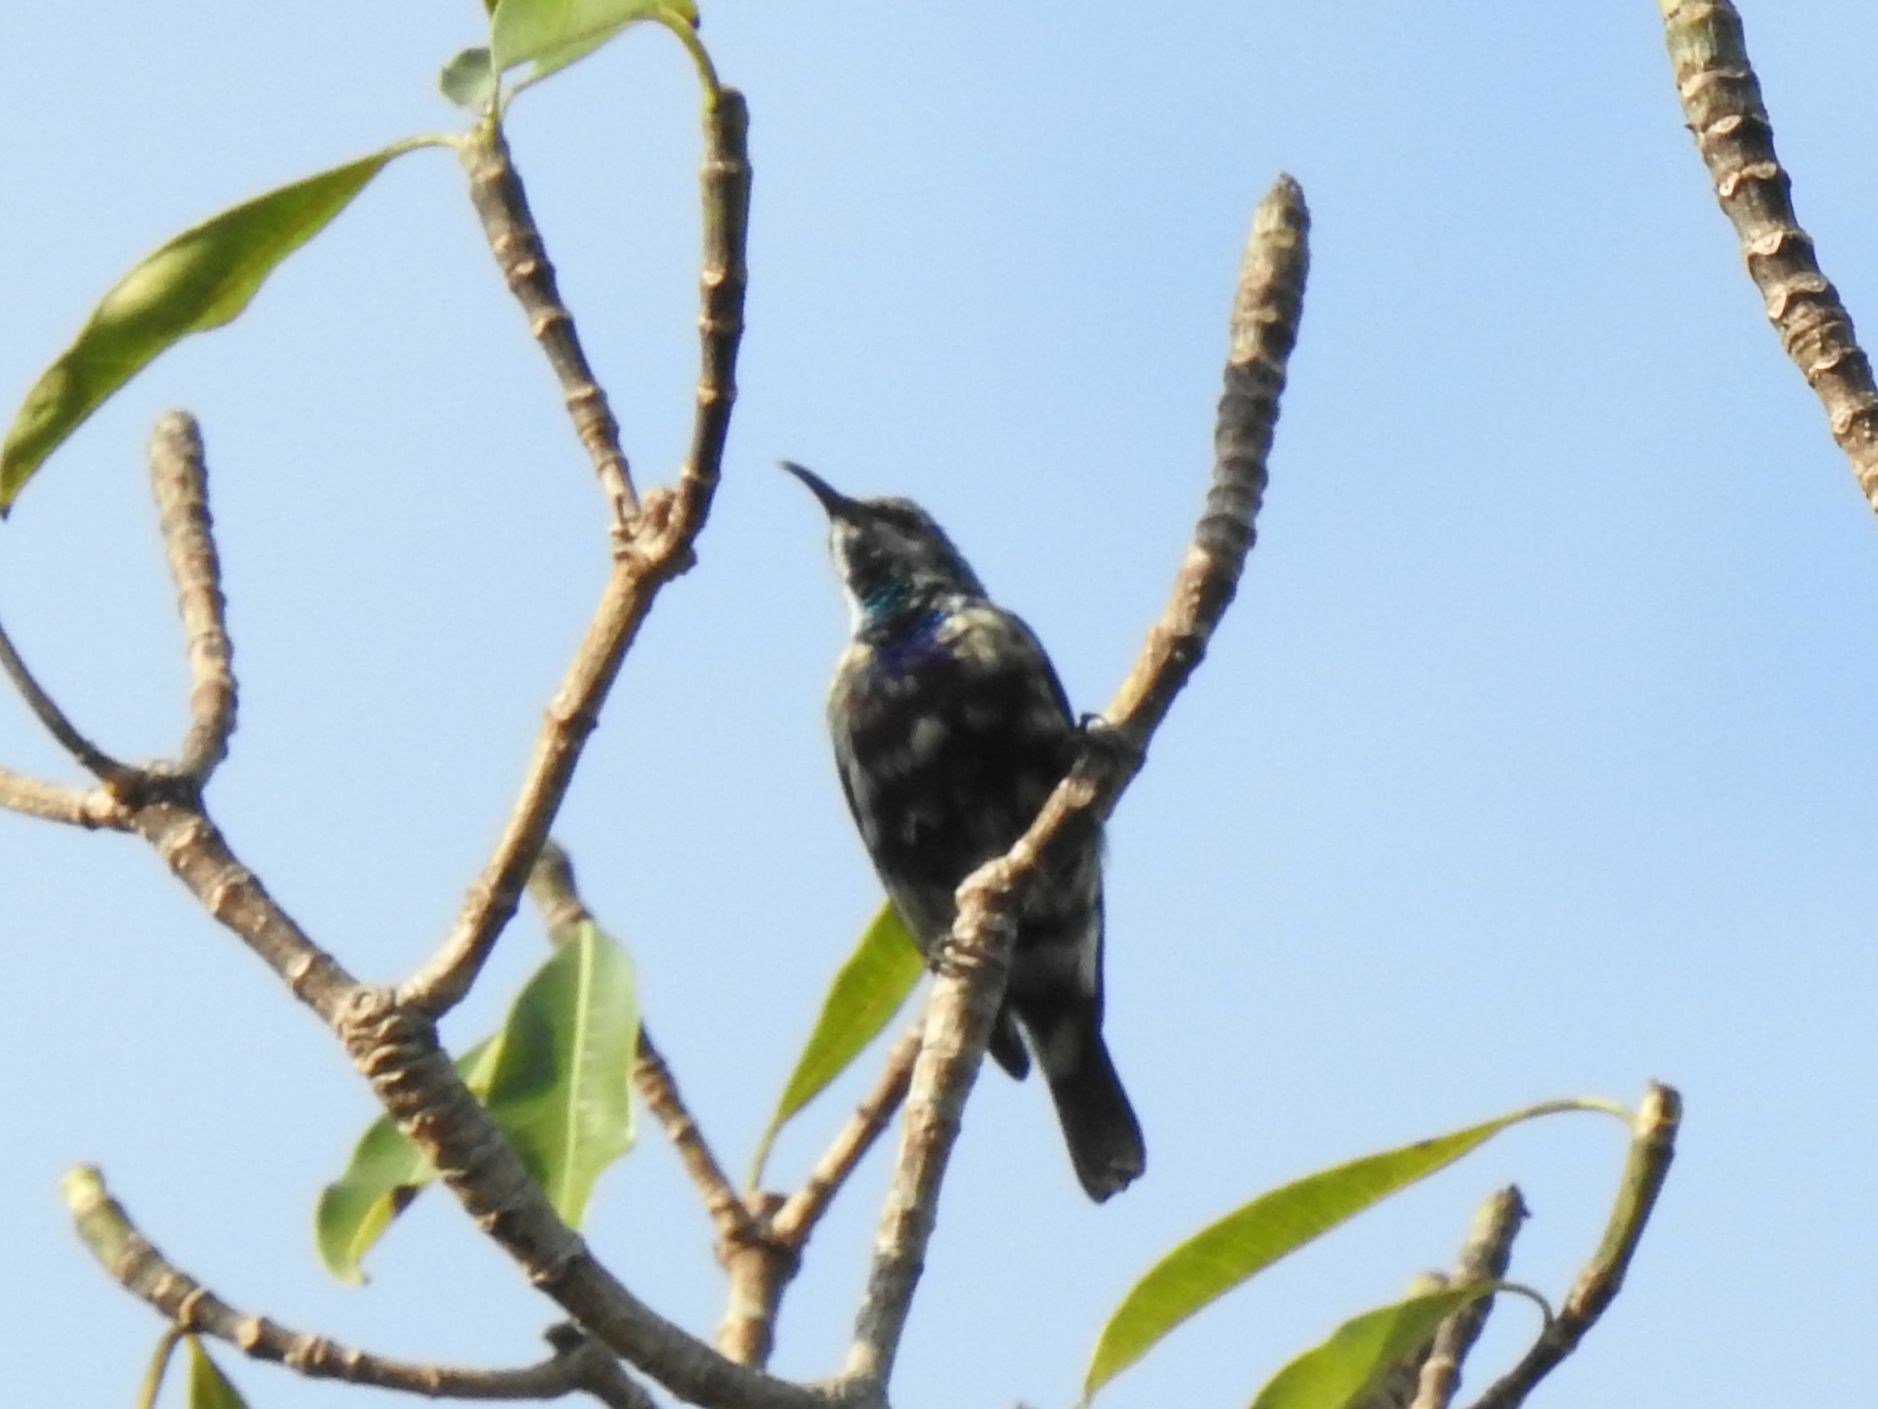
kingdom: Animalia
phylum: Chordata
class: Aves
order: Passeriformes
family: Nectariniidae
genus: Cinnyris
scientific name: Cinnyris bifasciatus
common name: Purple-banded sunbird
